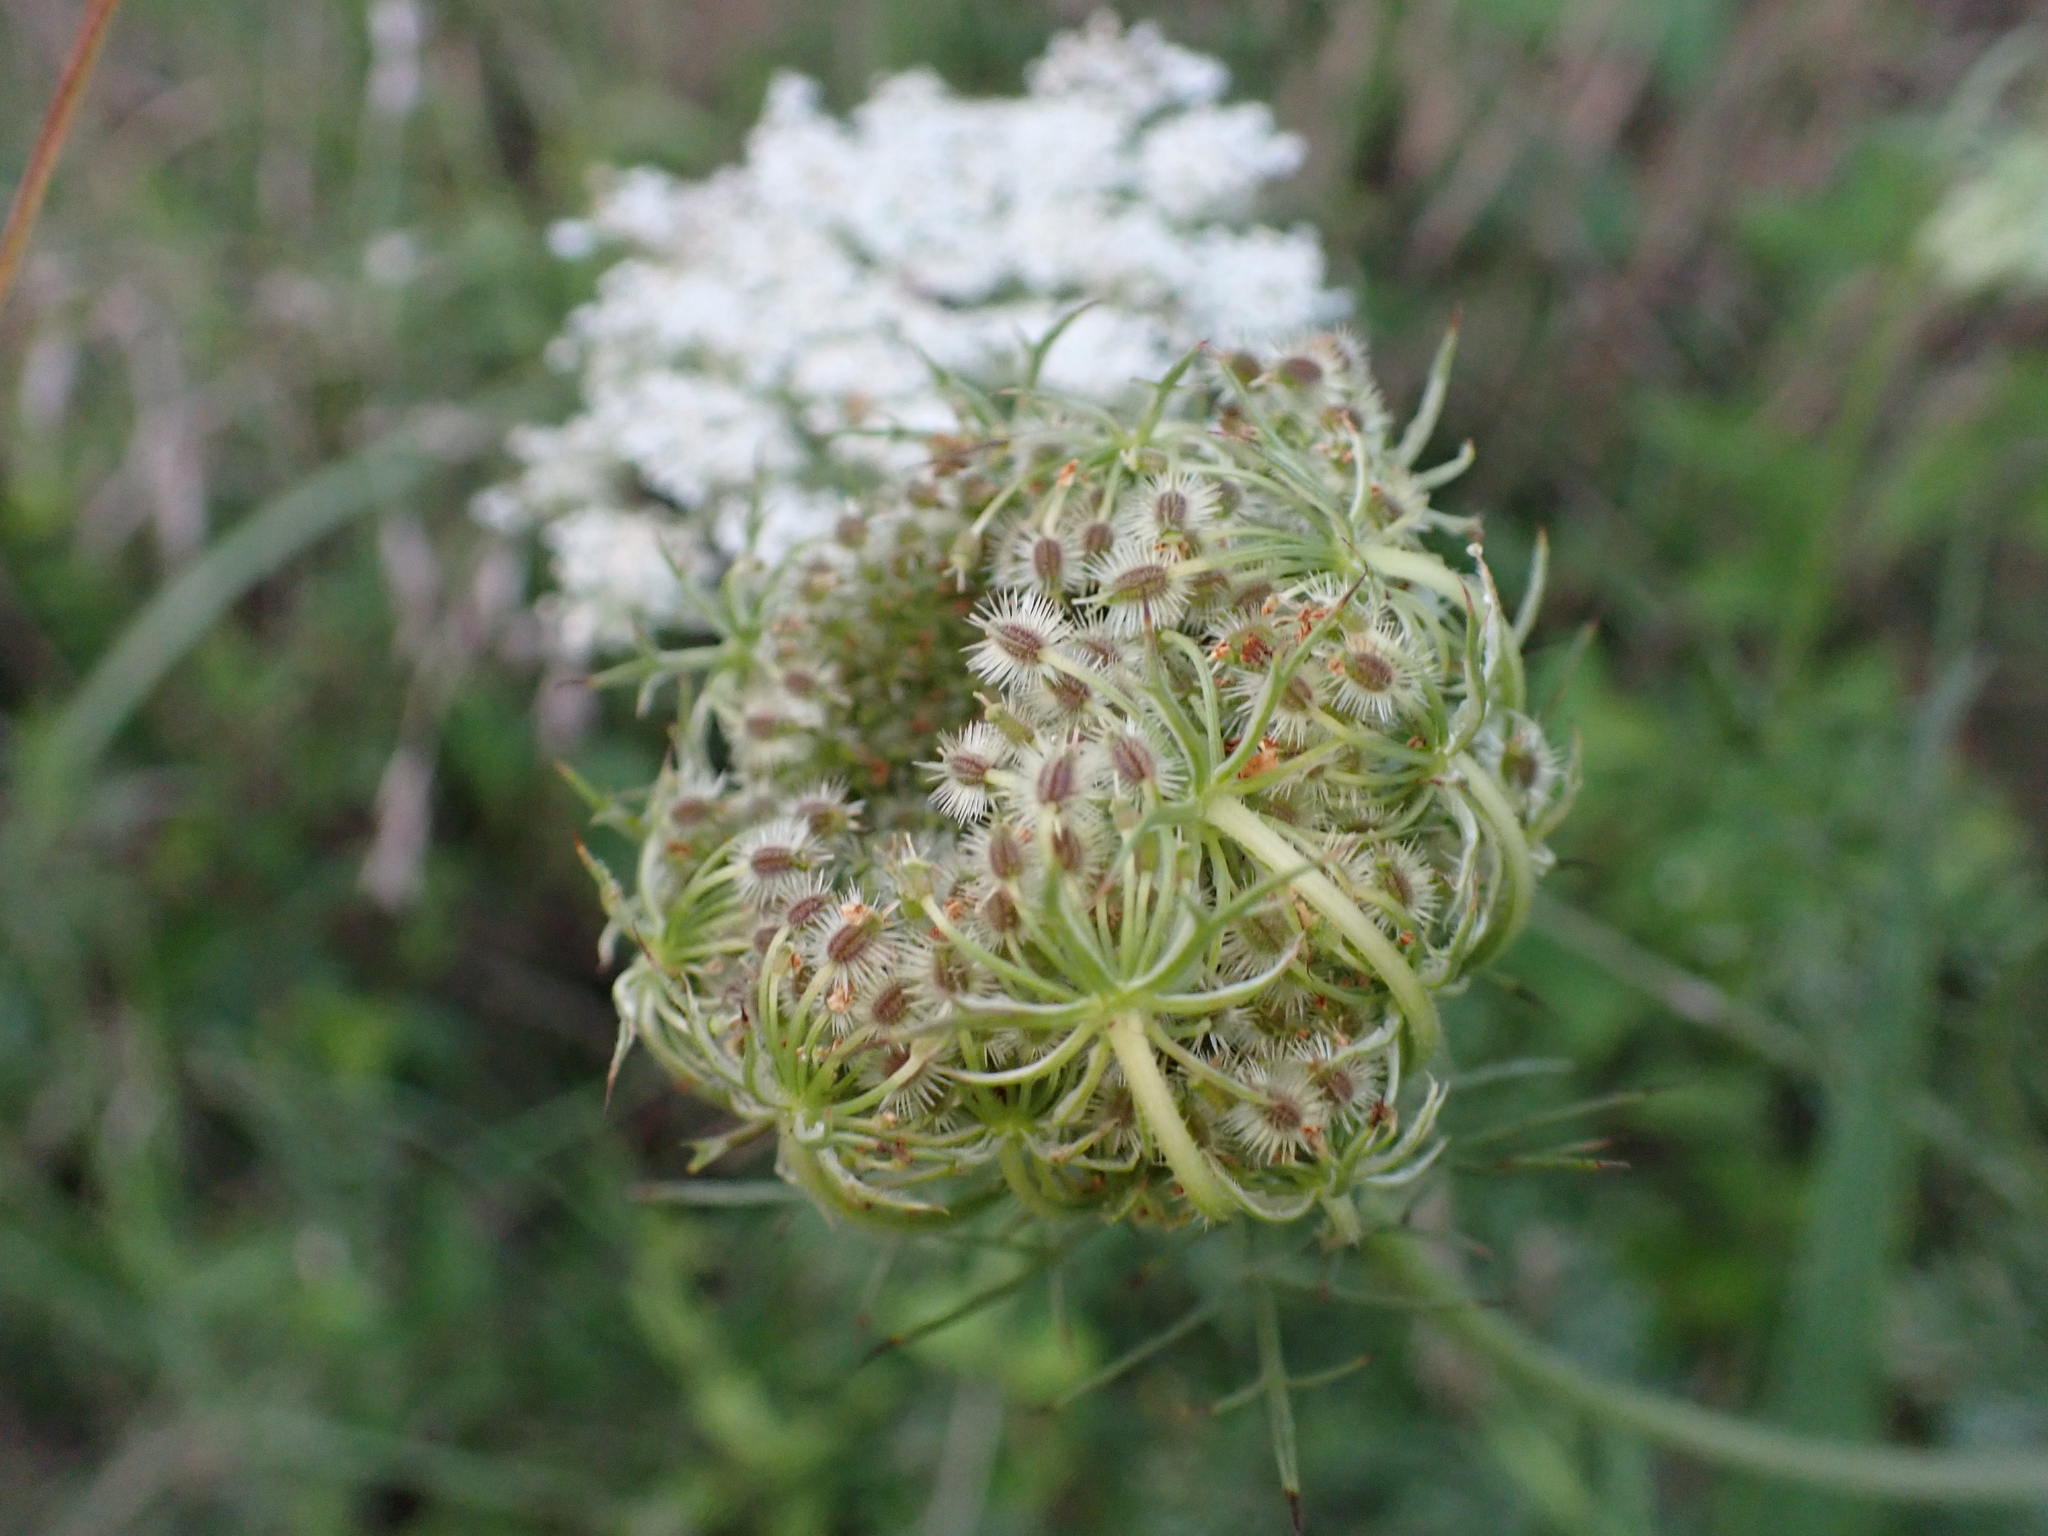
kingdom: Plantae
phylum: Tracheophyta
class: Magnoliopsida
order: Apiales
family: Apiaceae
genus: Daucus
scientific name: Daucus carota
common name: Wild carrot
